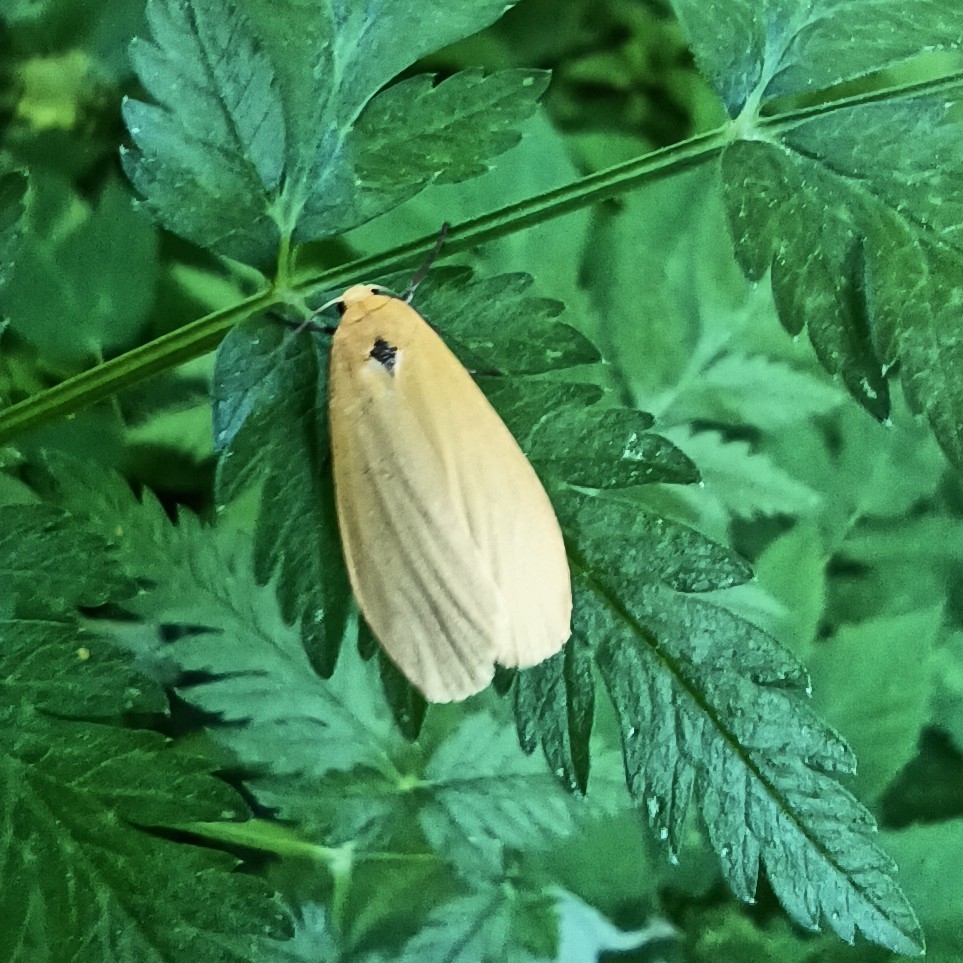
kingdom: Animalia
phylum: Arthropoda
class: Insecta
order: Lepidoptera
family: Erebidae
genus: Wittia
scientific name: Wittia sororcula
